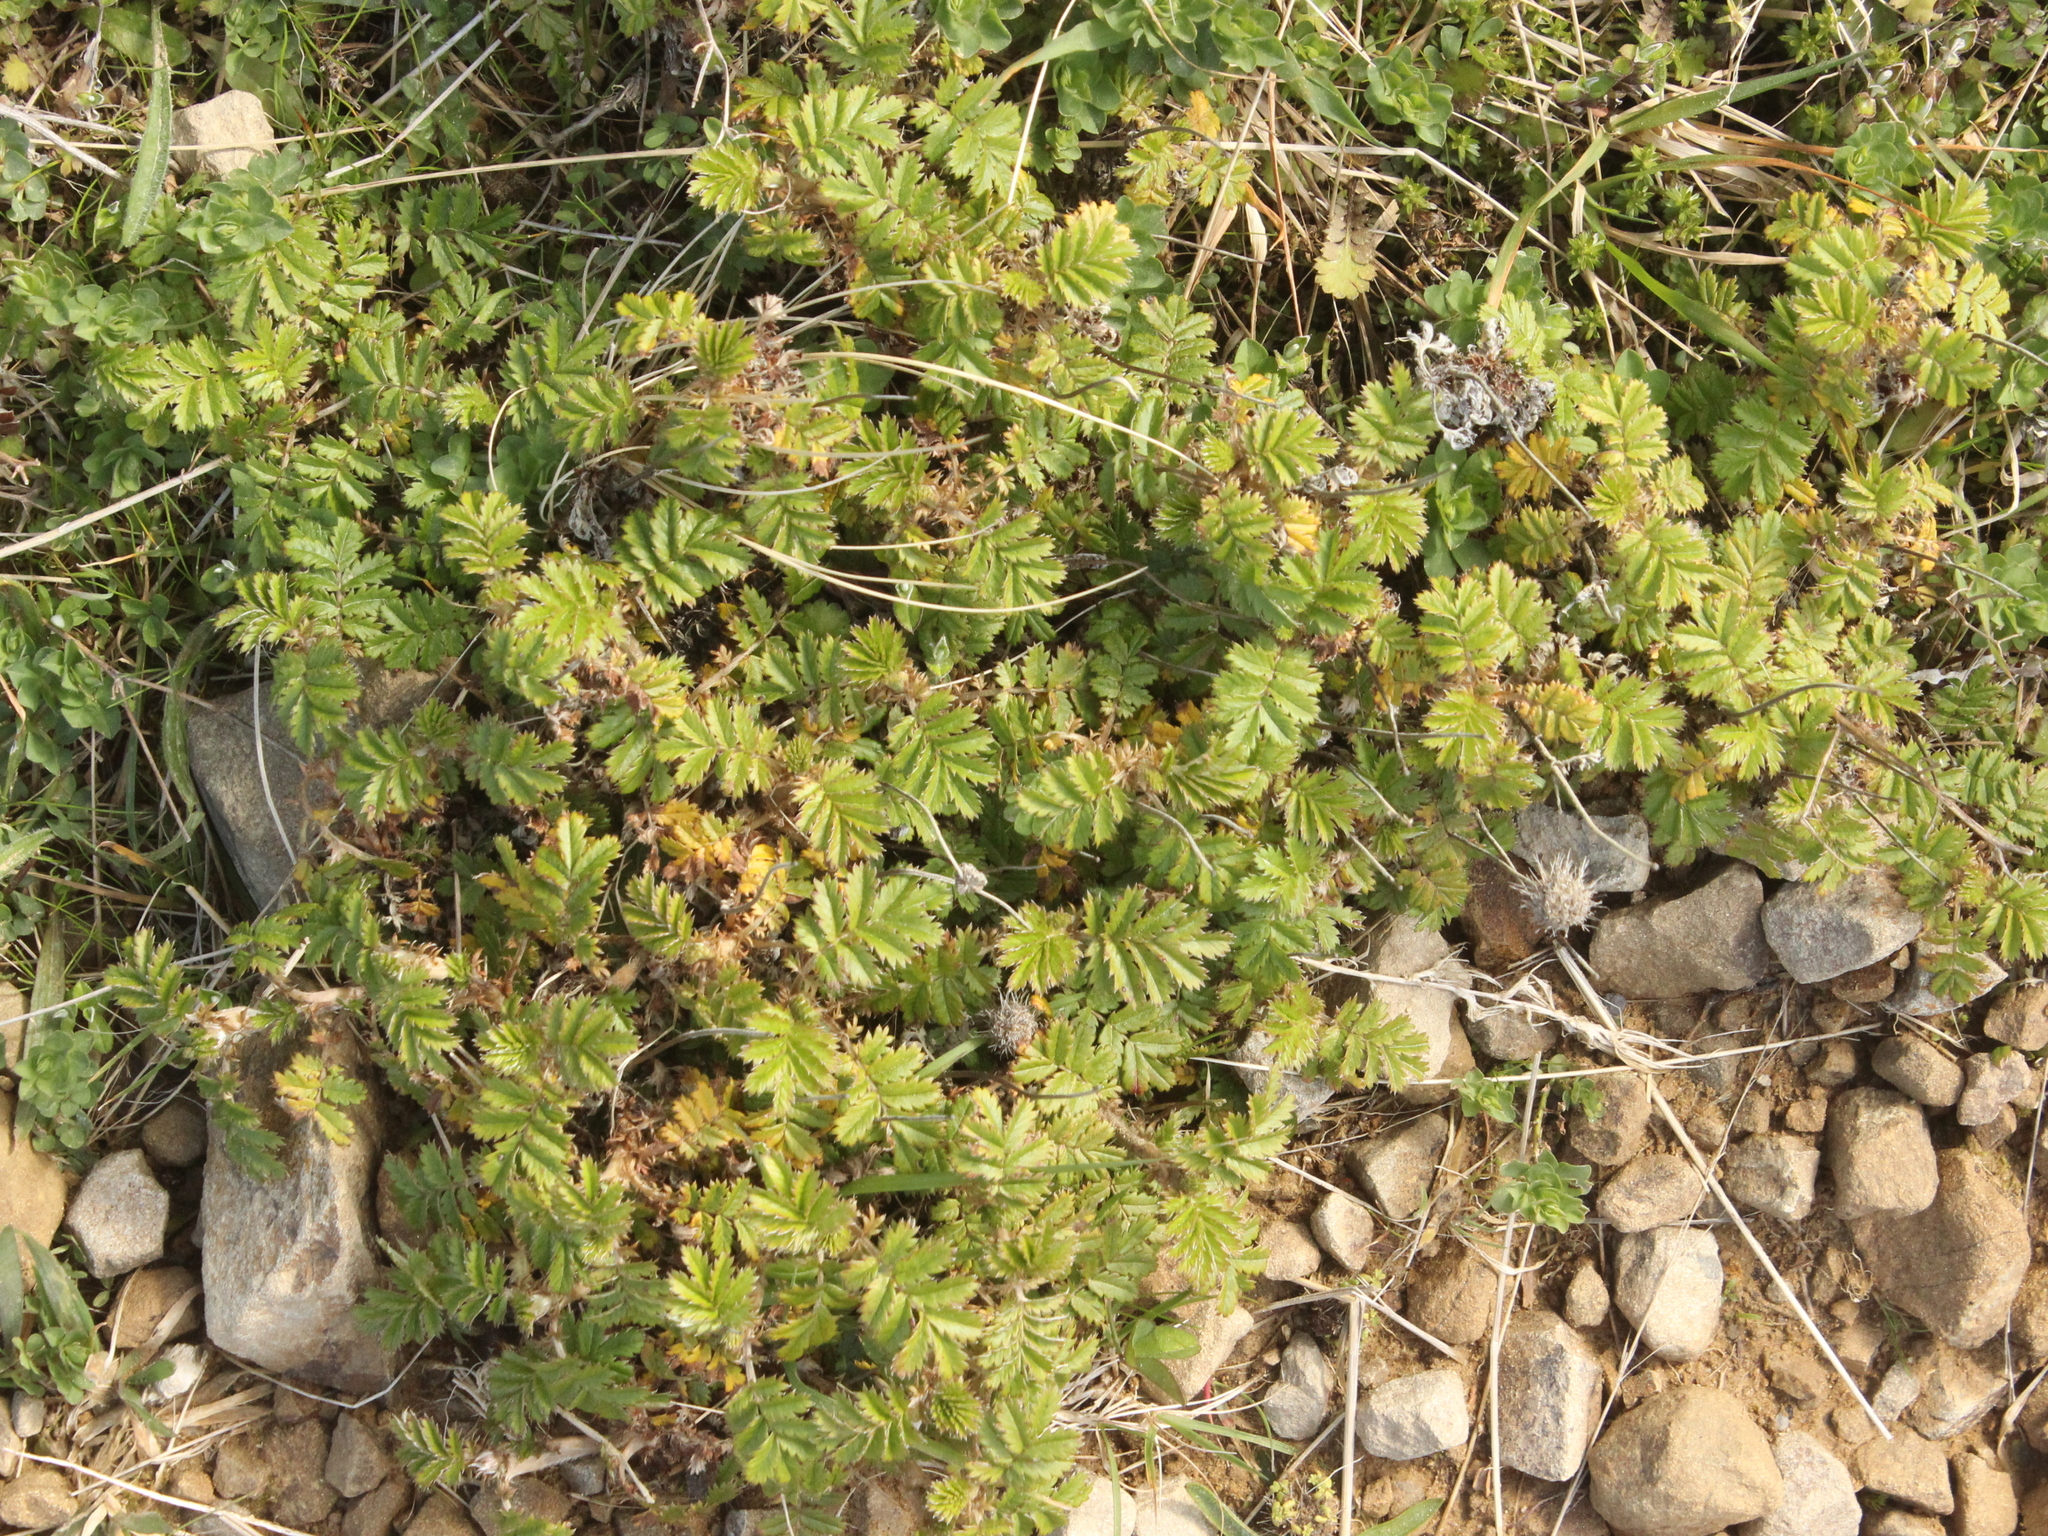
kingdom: Plantae
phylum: Tracheophyta
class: Magnoliopsida
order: Rosales
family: Rosaceae
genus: Acaena
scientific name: Acaena anserinifolia
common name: Bronze pirri-pirri-bur
